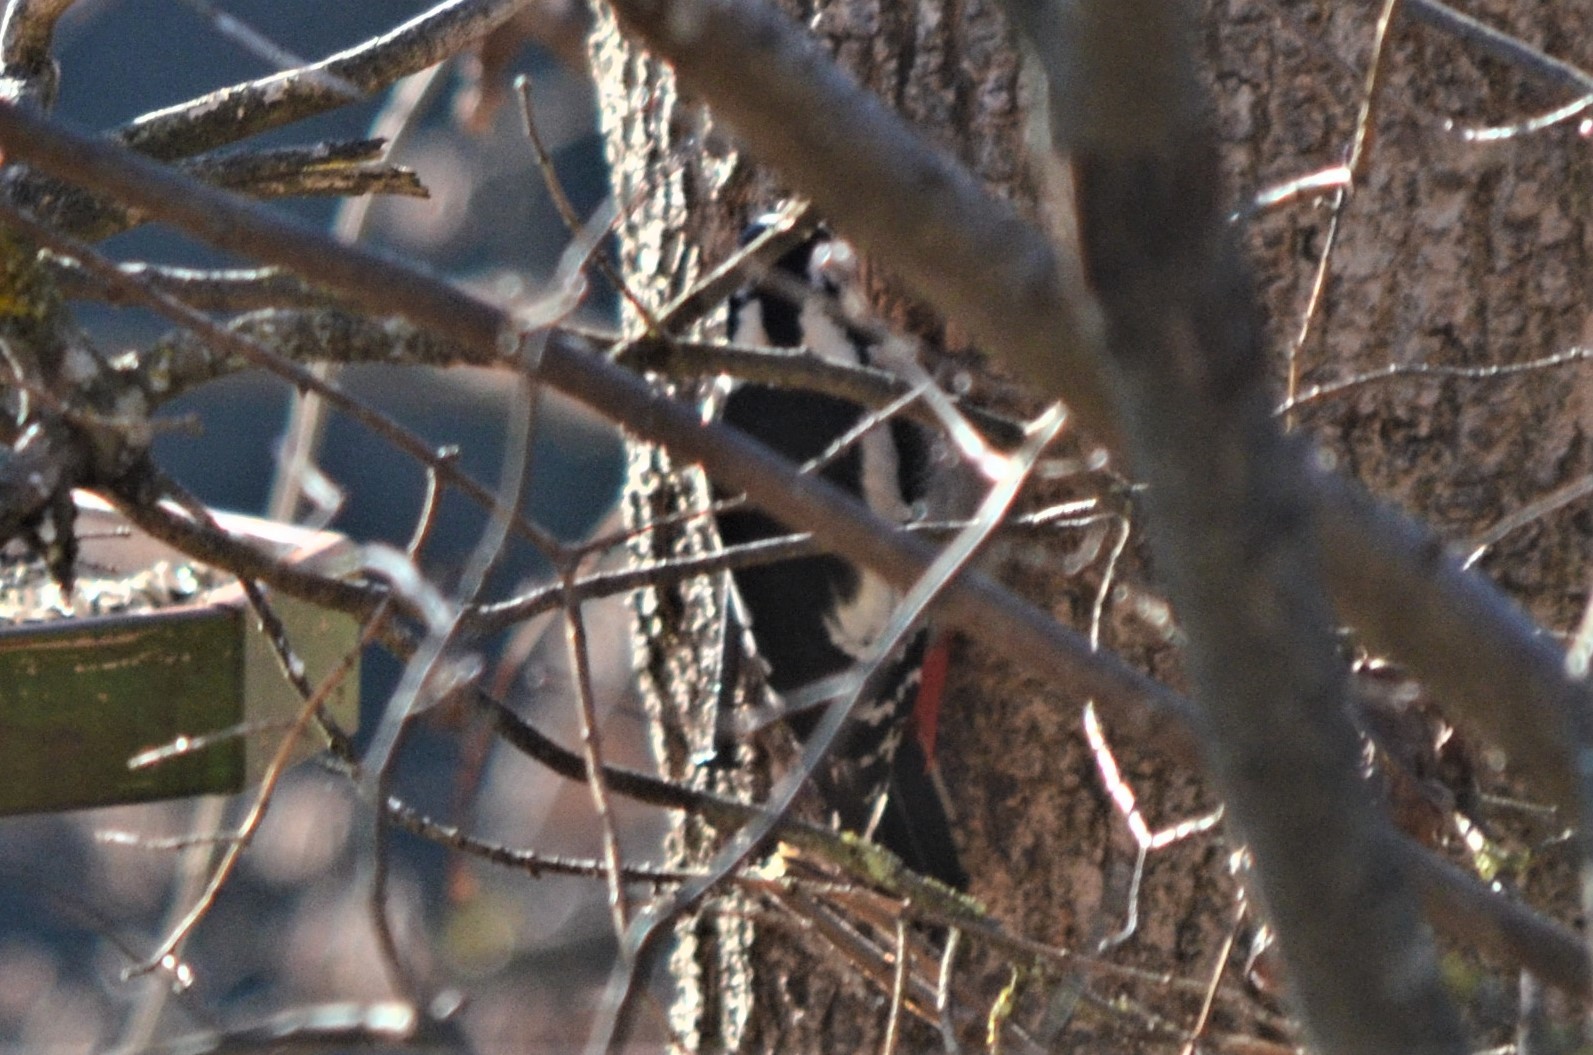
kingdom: Animalia
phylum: Chordata
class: Aves
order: Piciformes
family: Picidae
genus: Dendrocopos
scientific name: Dendrocopos major
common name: Great spotted woodpecker
